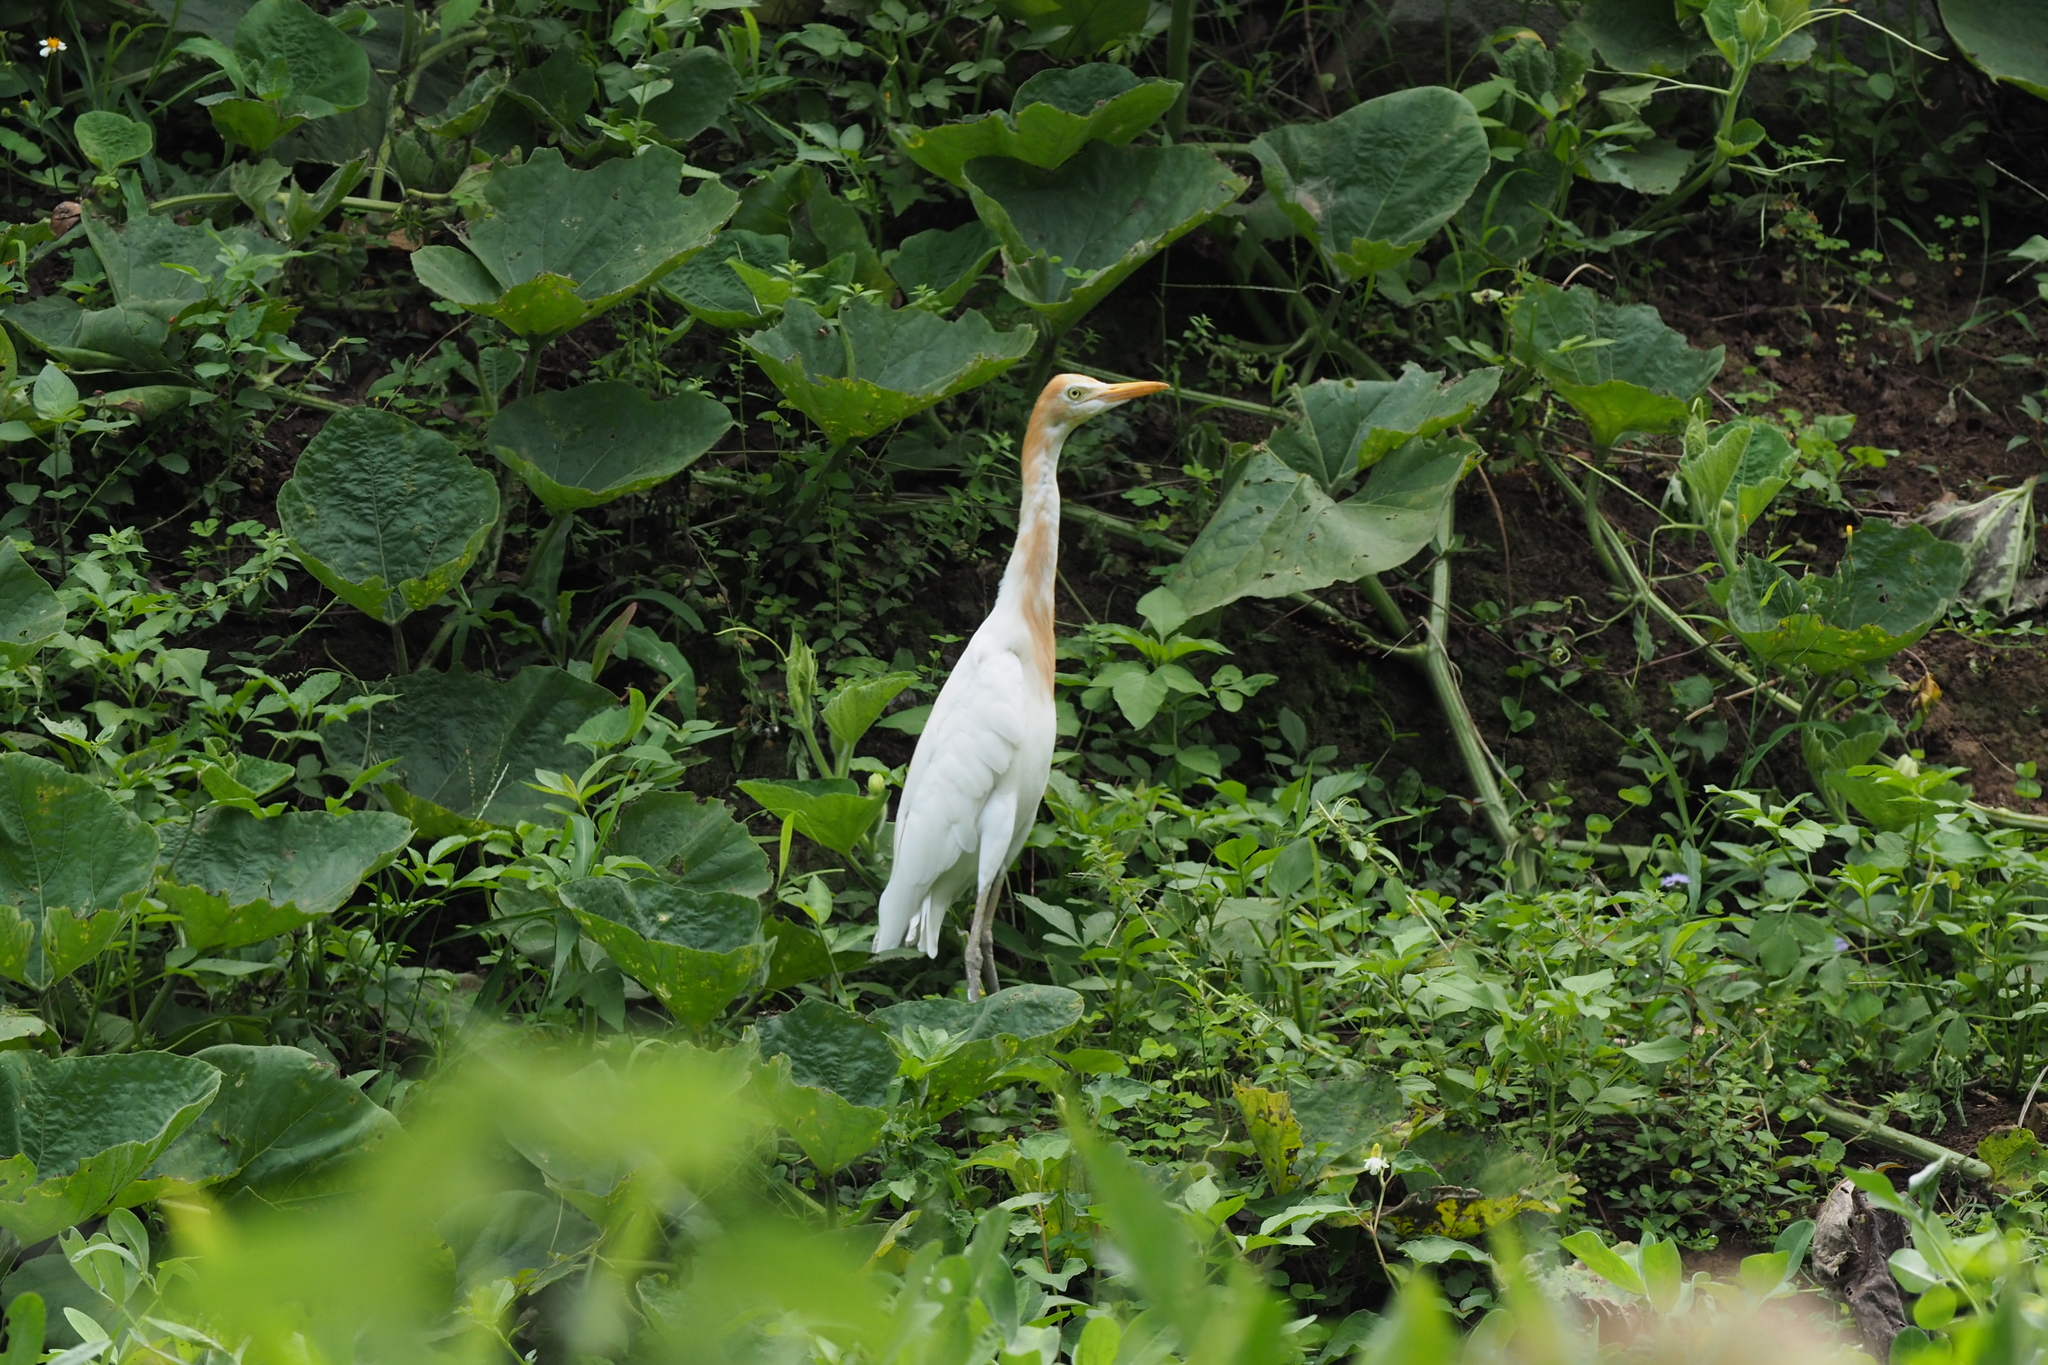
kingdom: Animalia
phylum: Chordata
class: Aves
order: Pelecaniformes
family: Ardeidae
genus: Bubulcus
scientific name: Bubulcus coromandus
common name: Eastern cattle egret
